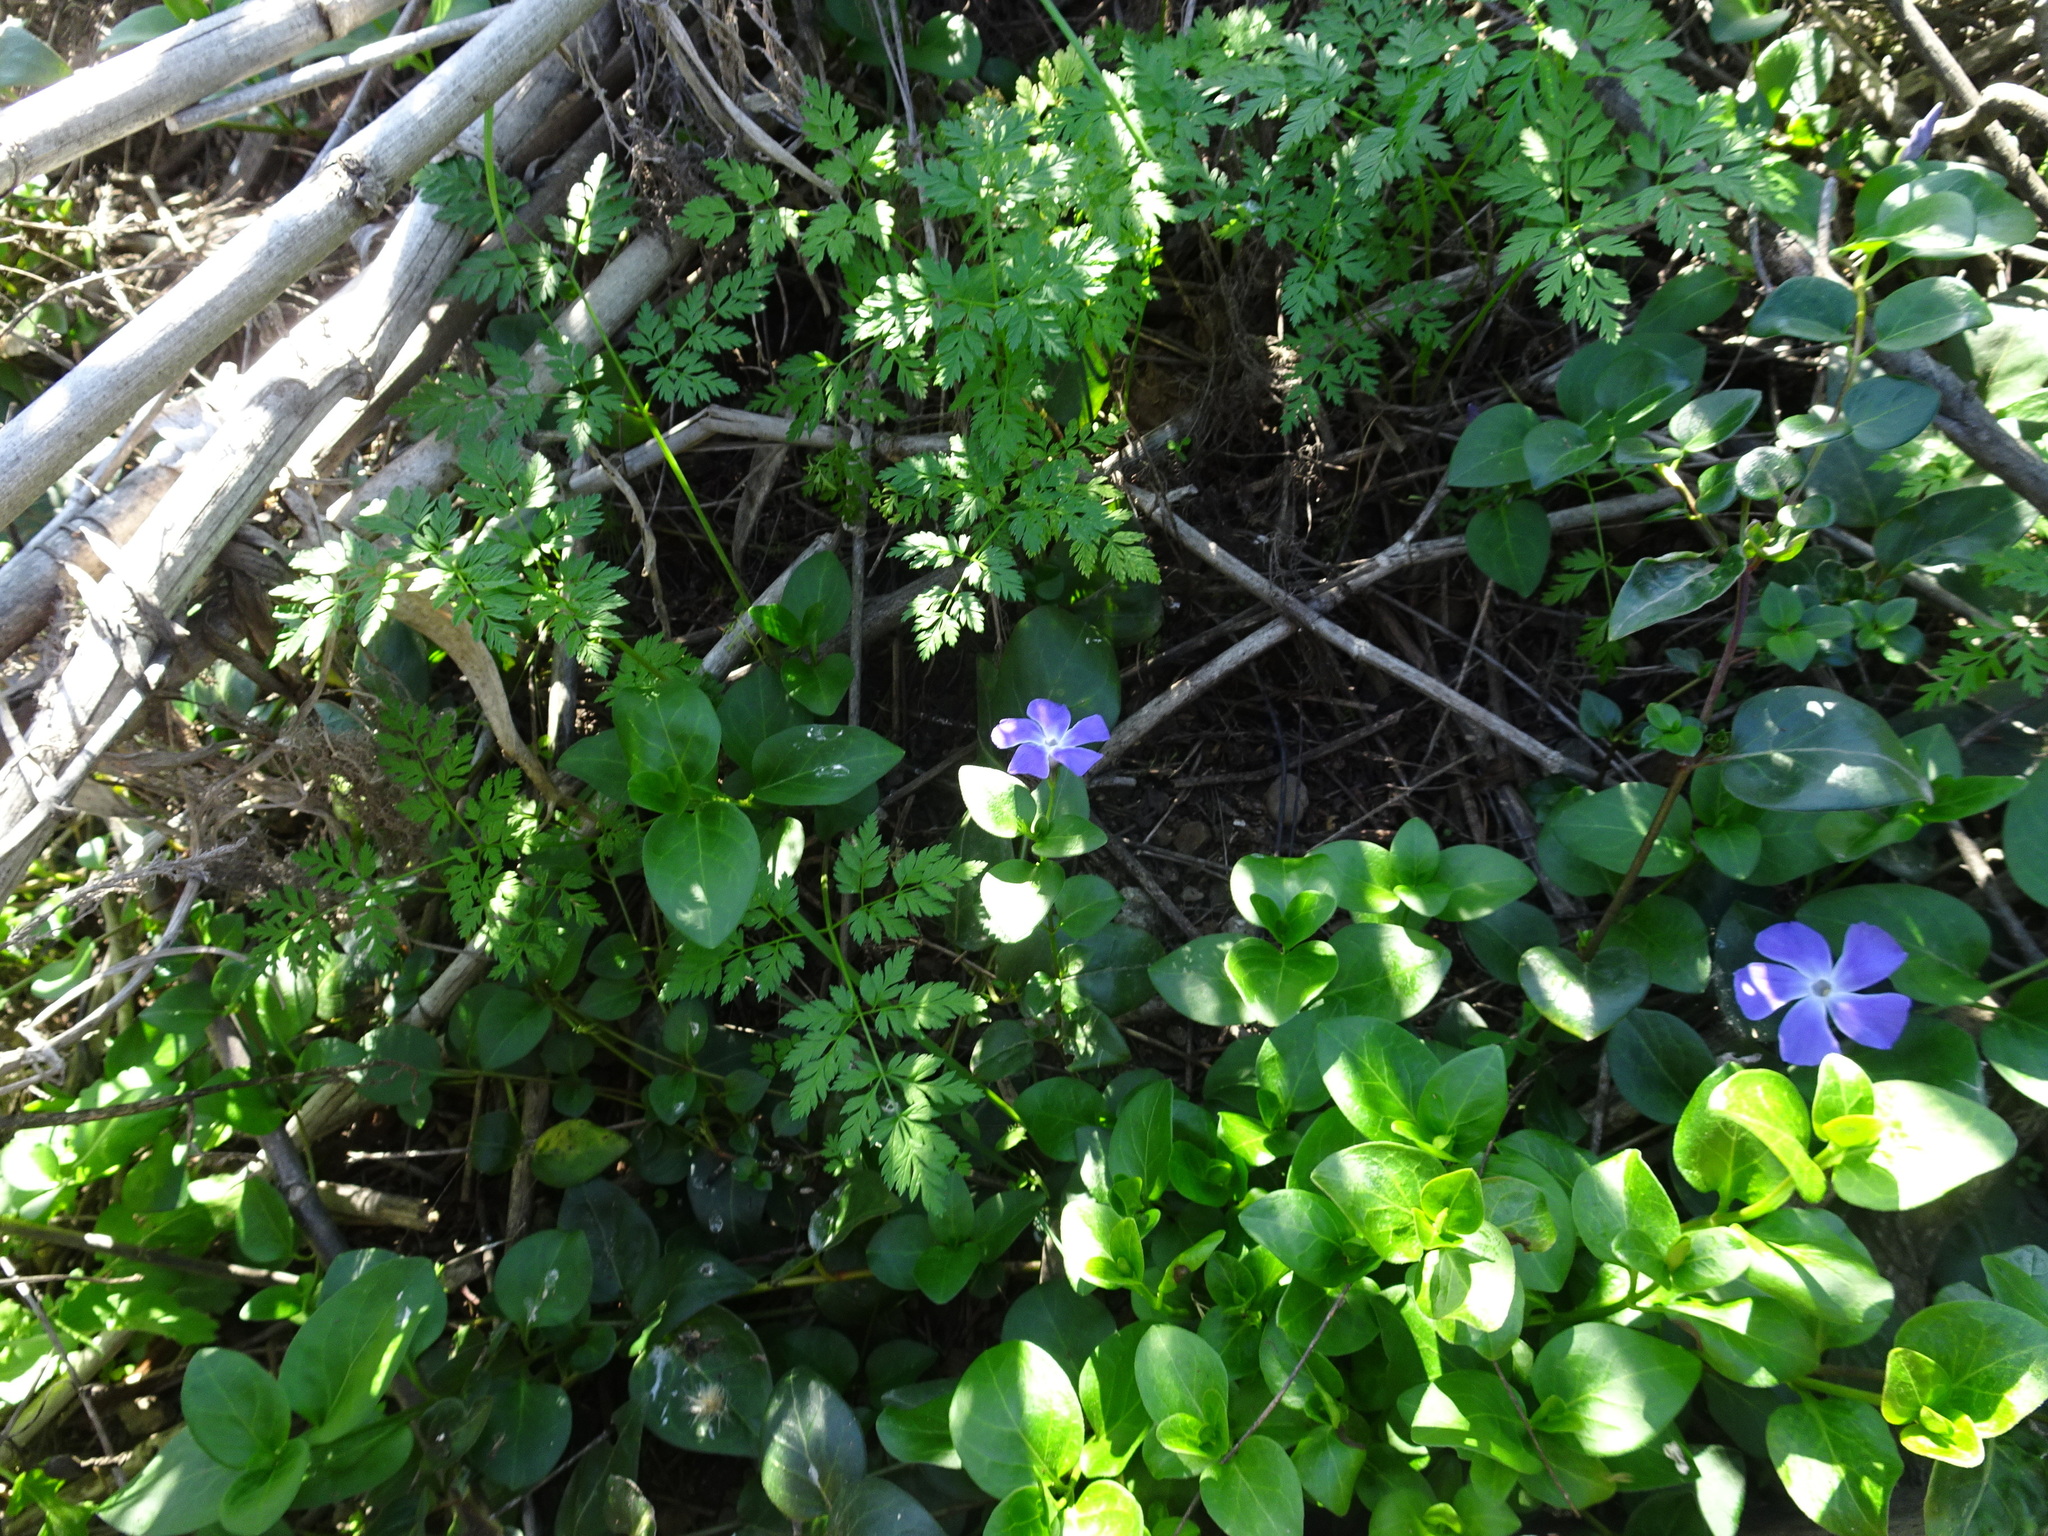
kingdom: Plantae
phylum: Tracheophyta
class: Magnoliopsida
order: Gentianales
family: Apocynaceae
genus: Vinca
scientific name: Vinca major
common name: Greater periwinkle
